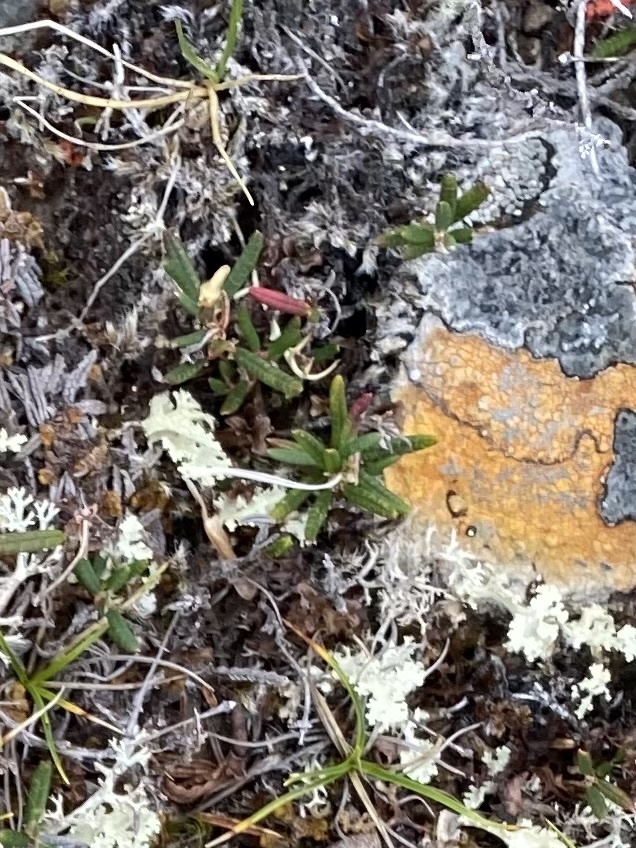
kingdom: Plantae
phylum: Tracheophyta
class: Magnoliopsida
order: Ericales
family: Ericaceae
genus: Rhododendron
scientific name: Rhododendron tomentosum
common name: Marsh labrador tea
